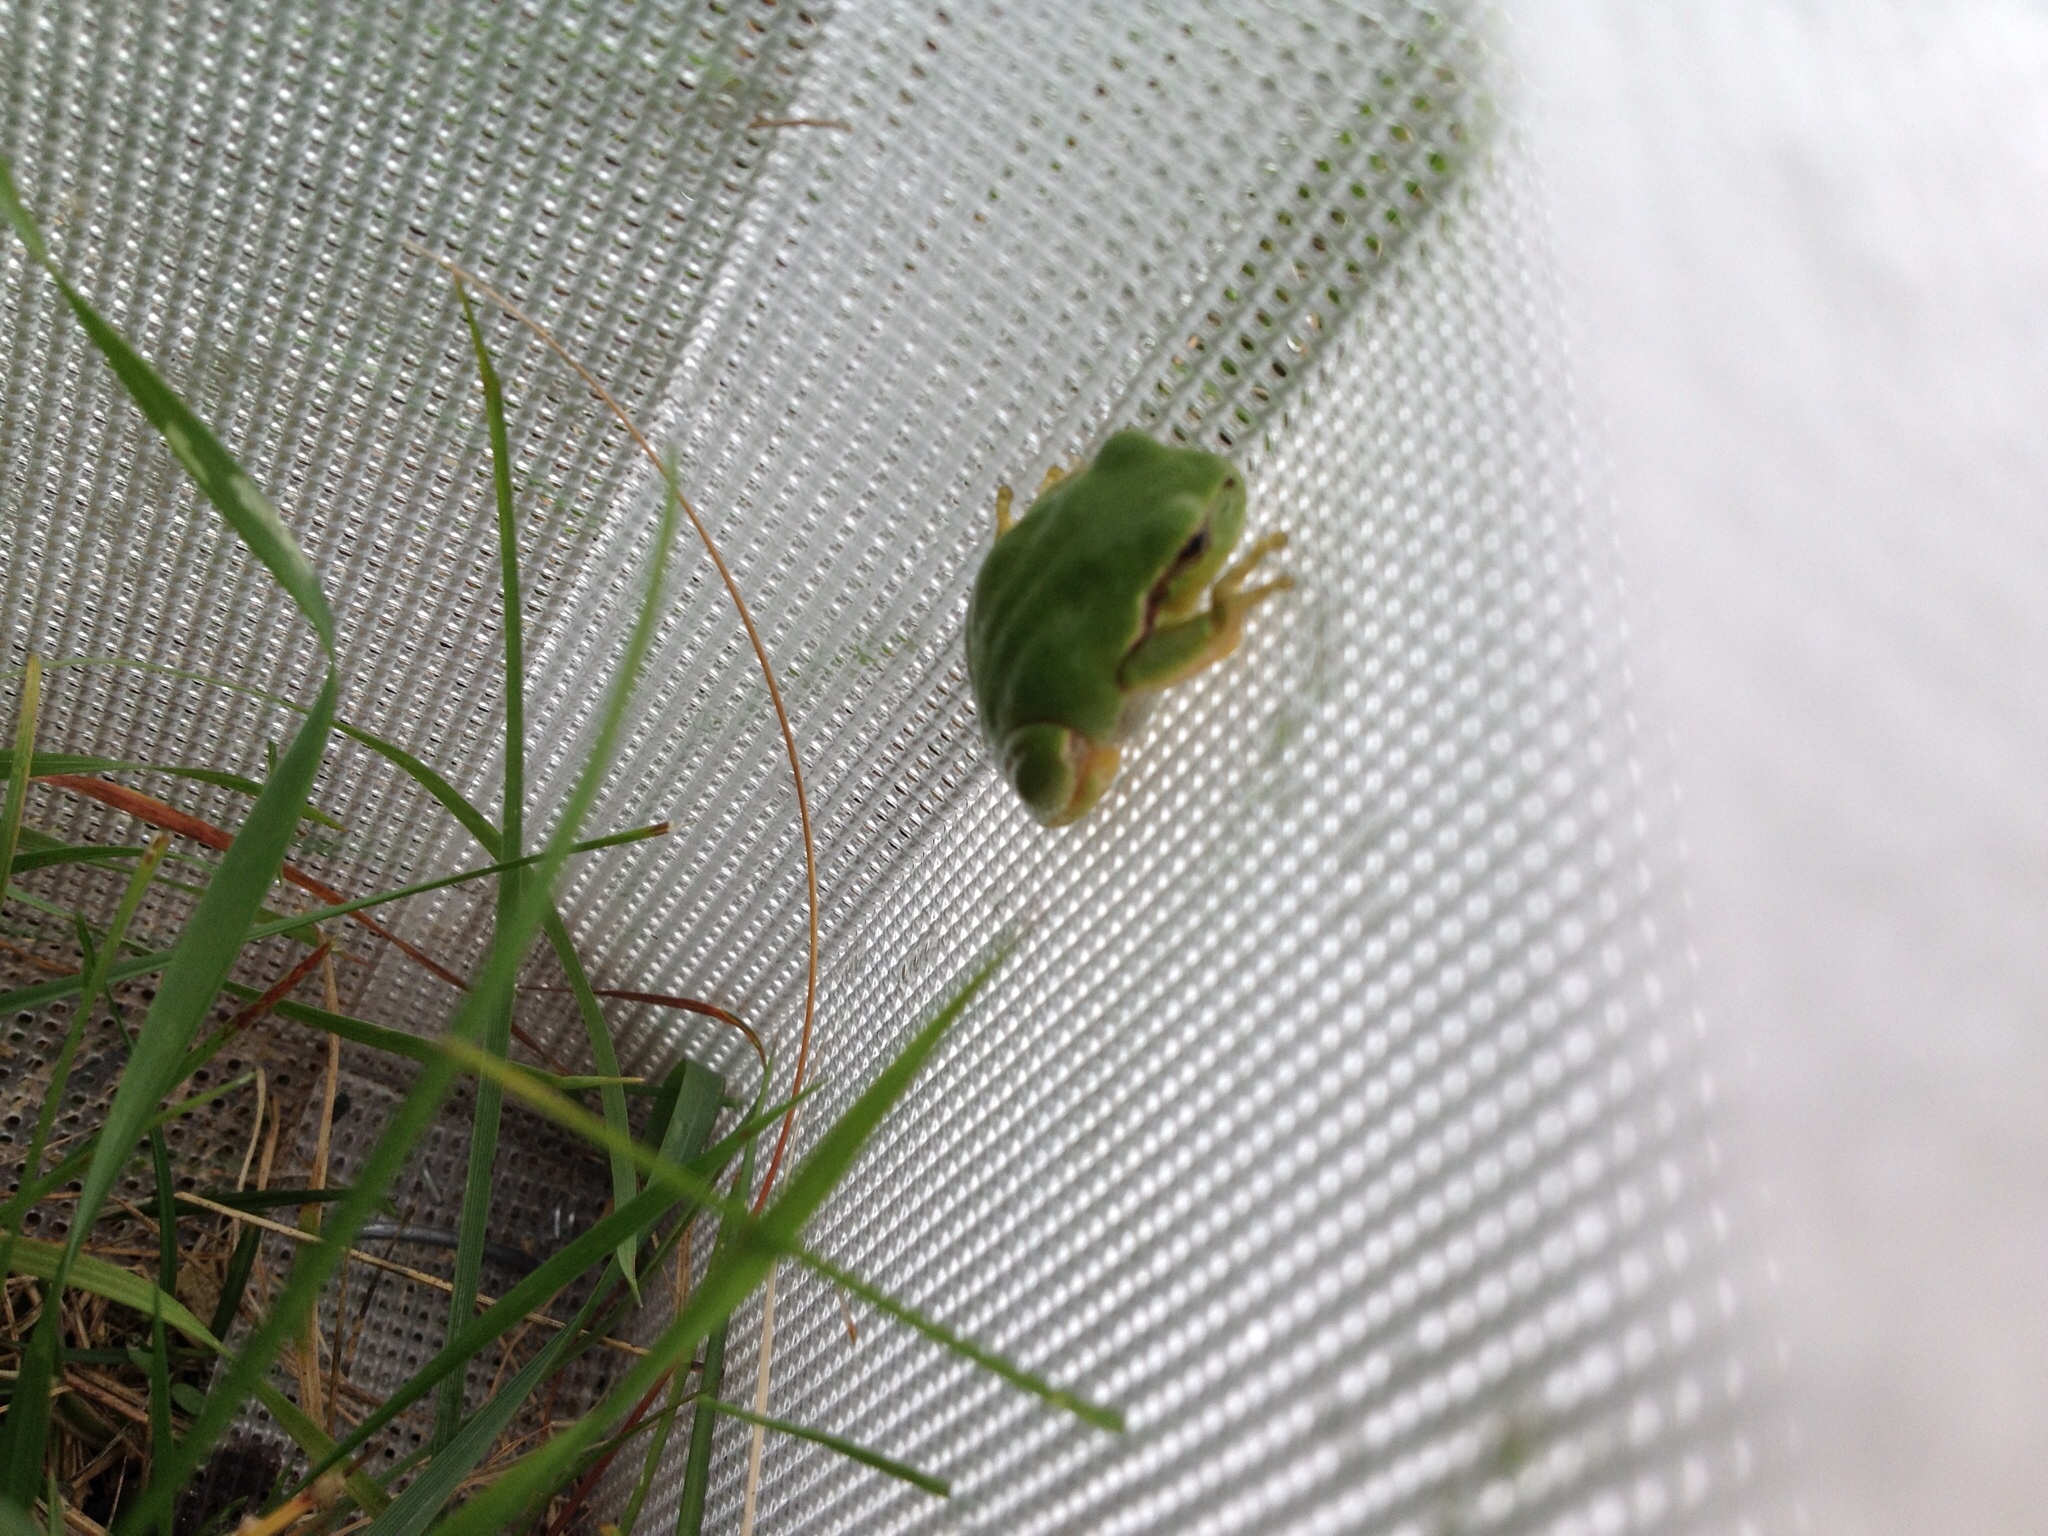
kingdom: Animalia
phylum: Chordata
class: Amphibia
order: Anura
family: Hylidae
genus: Hyla
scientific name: Hyla arborea
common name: Common tree frog
